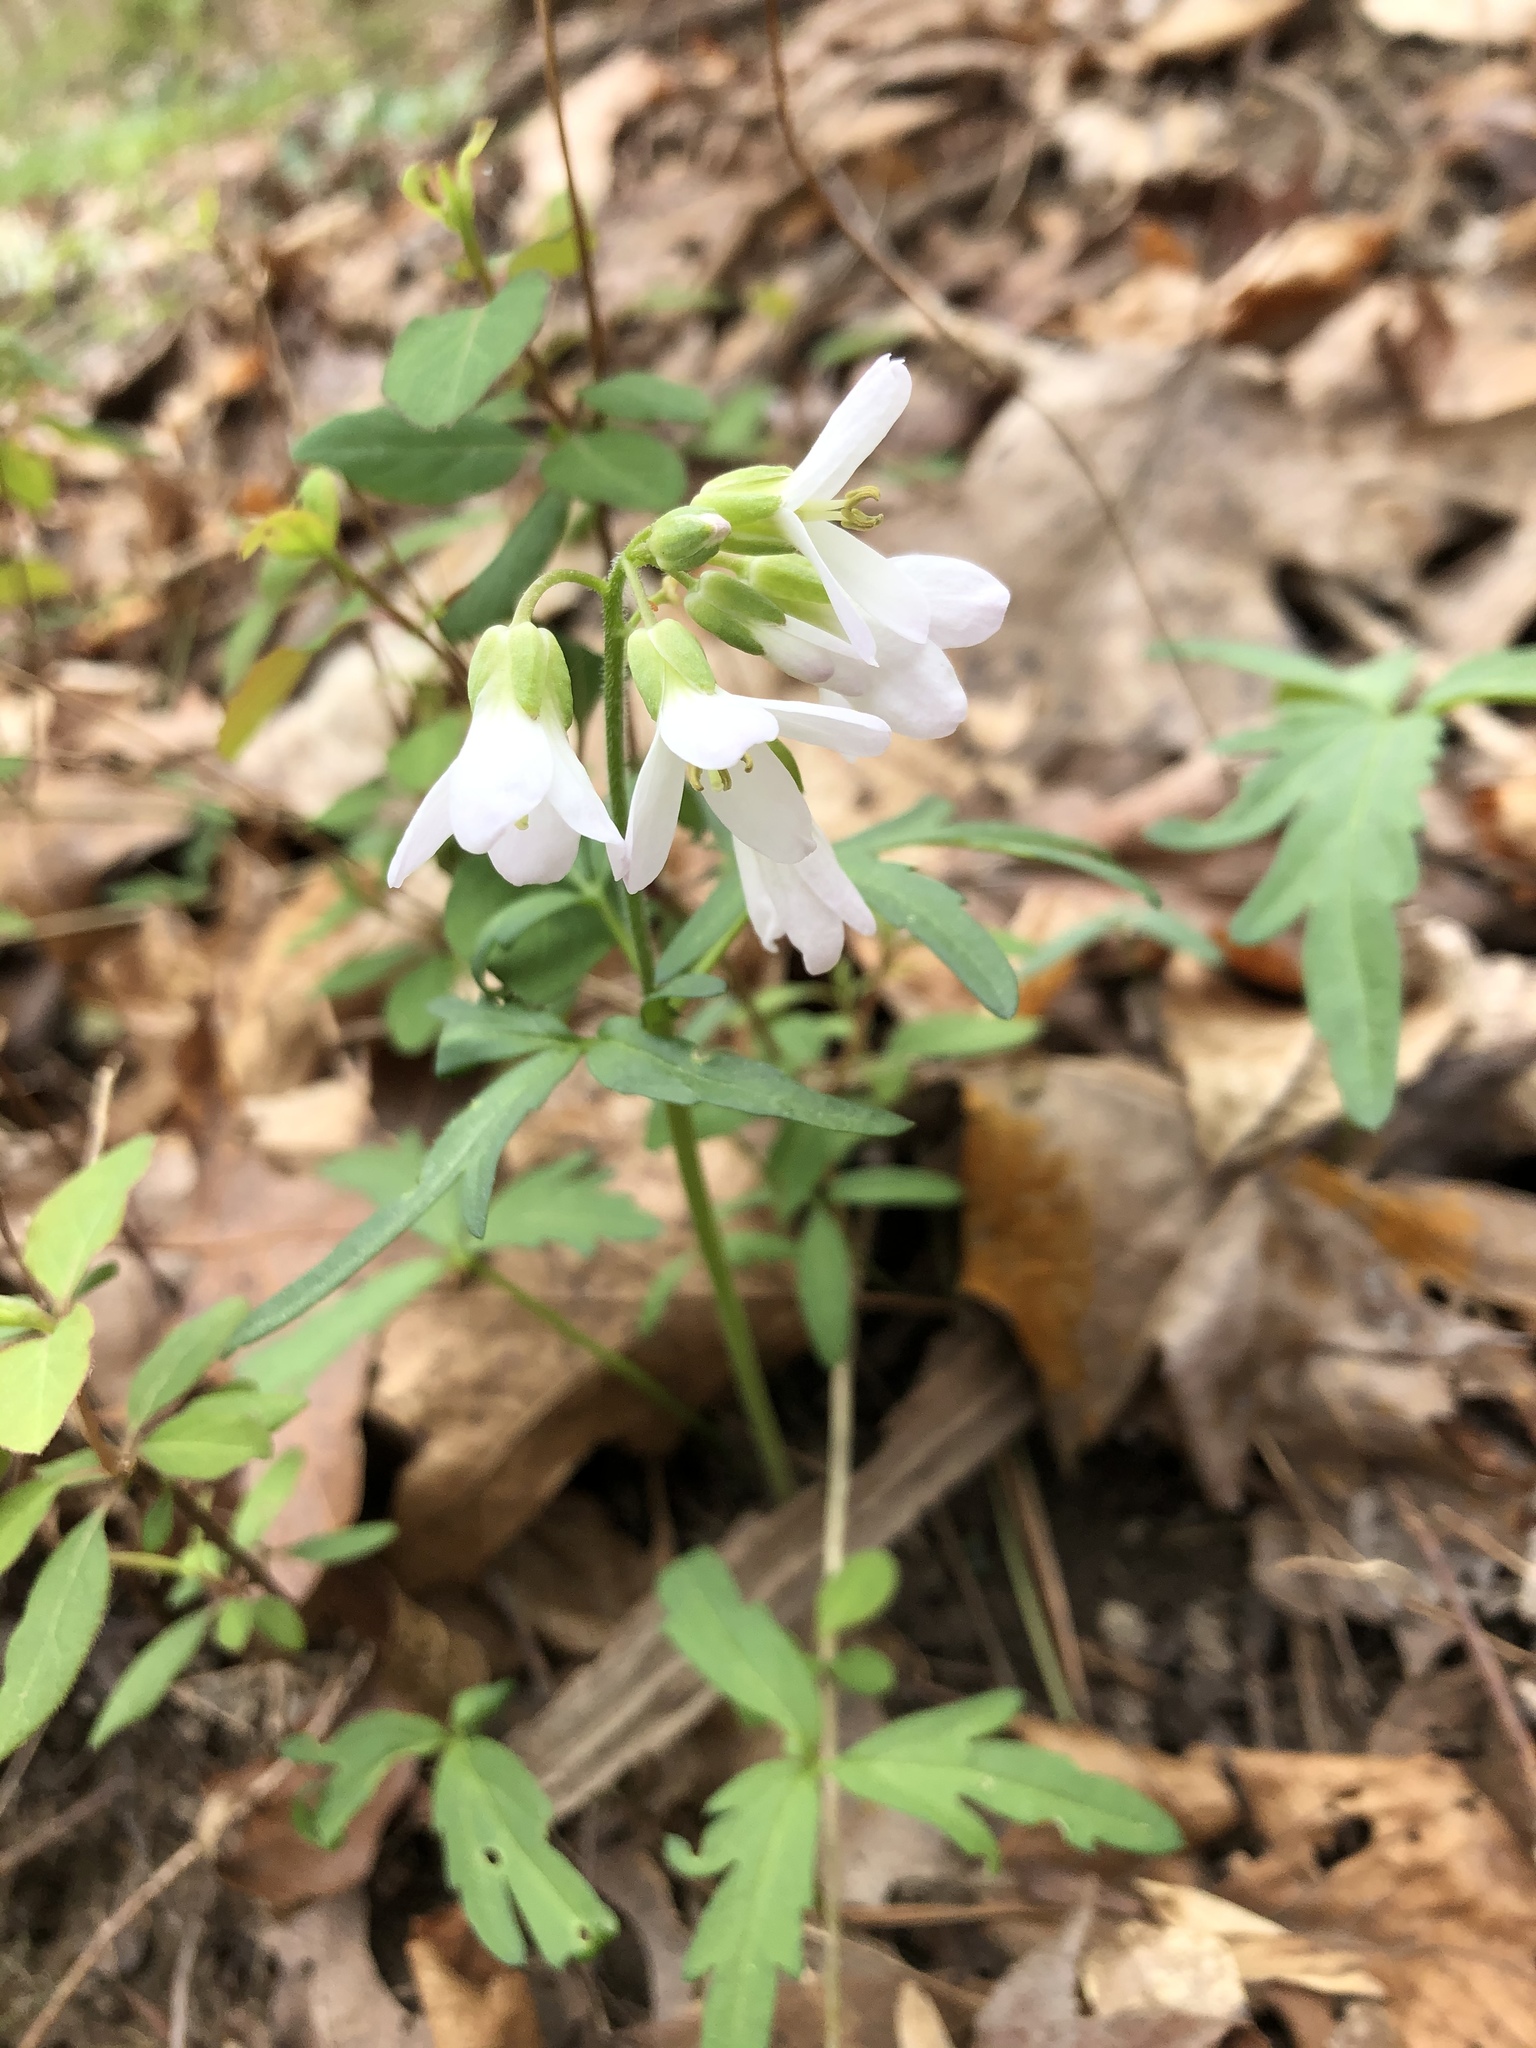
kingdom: Plantae
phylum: Tracheophyta
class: Magnoliopsida
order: Brassicales
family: Brassicaceae
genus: Cardamine
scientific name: Cardamine concatenata
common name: Cut-leaf toothcup
